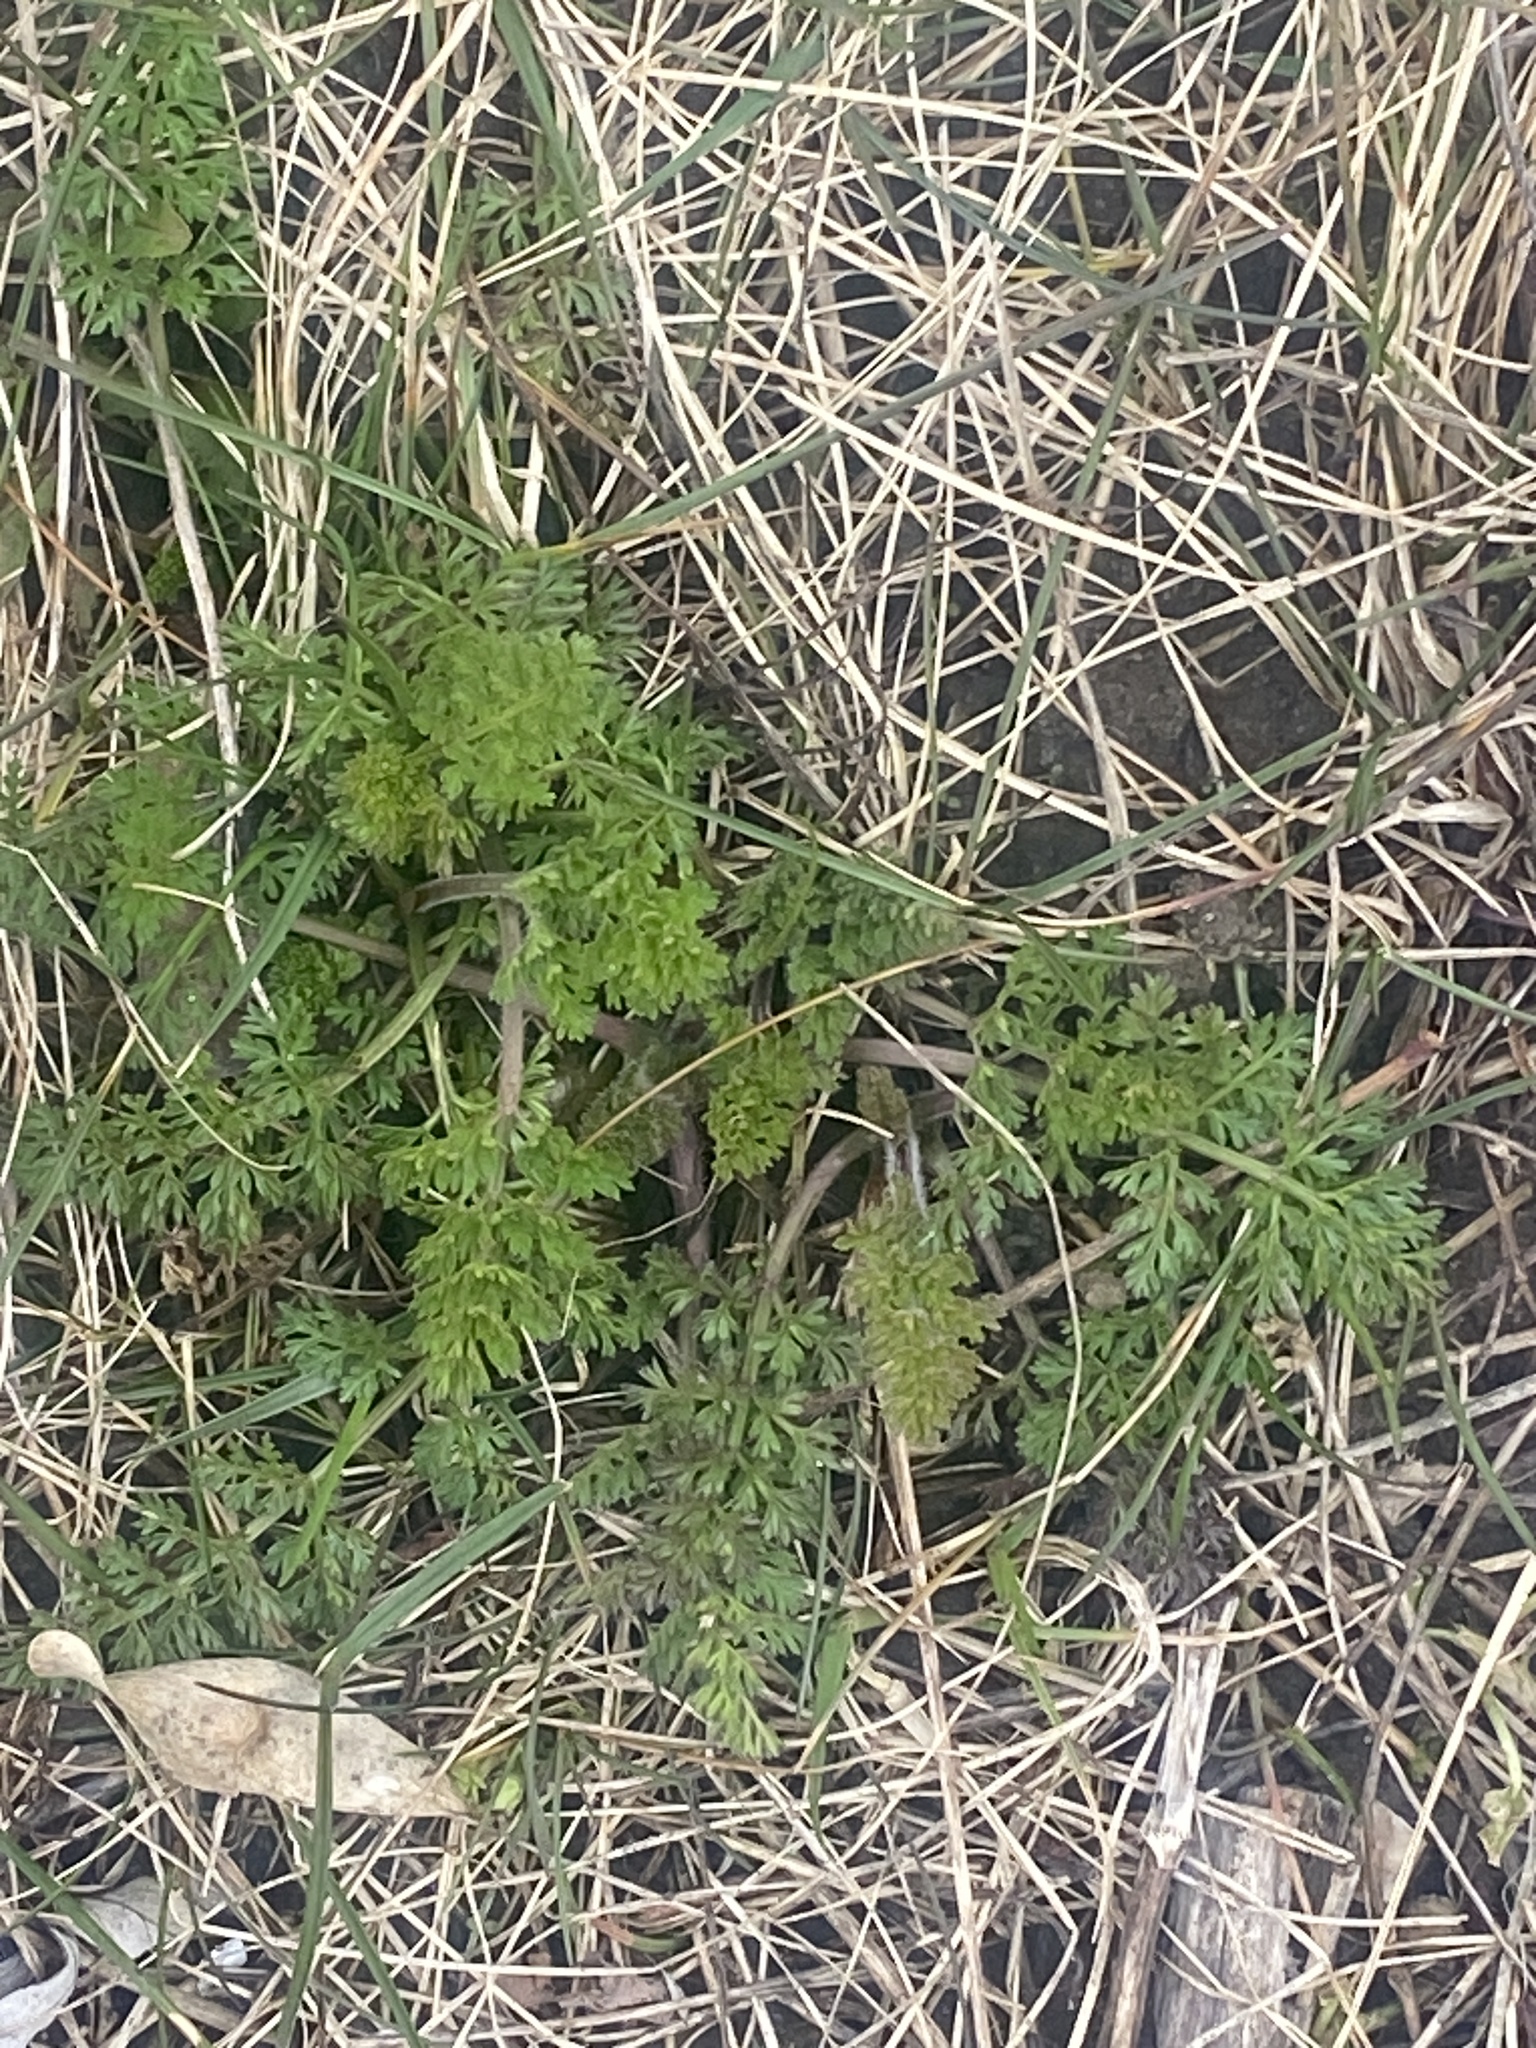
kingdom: Plantae
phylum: Tracheophyta
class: Magnoliopsida
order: Apiales
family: Apiaceae
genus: Daucus
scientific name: Daucus carota
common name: Wild carrot
